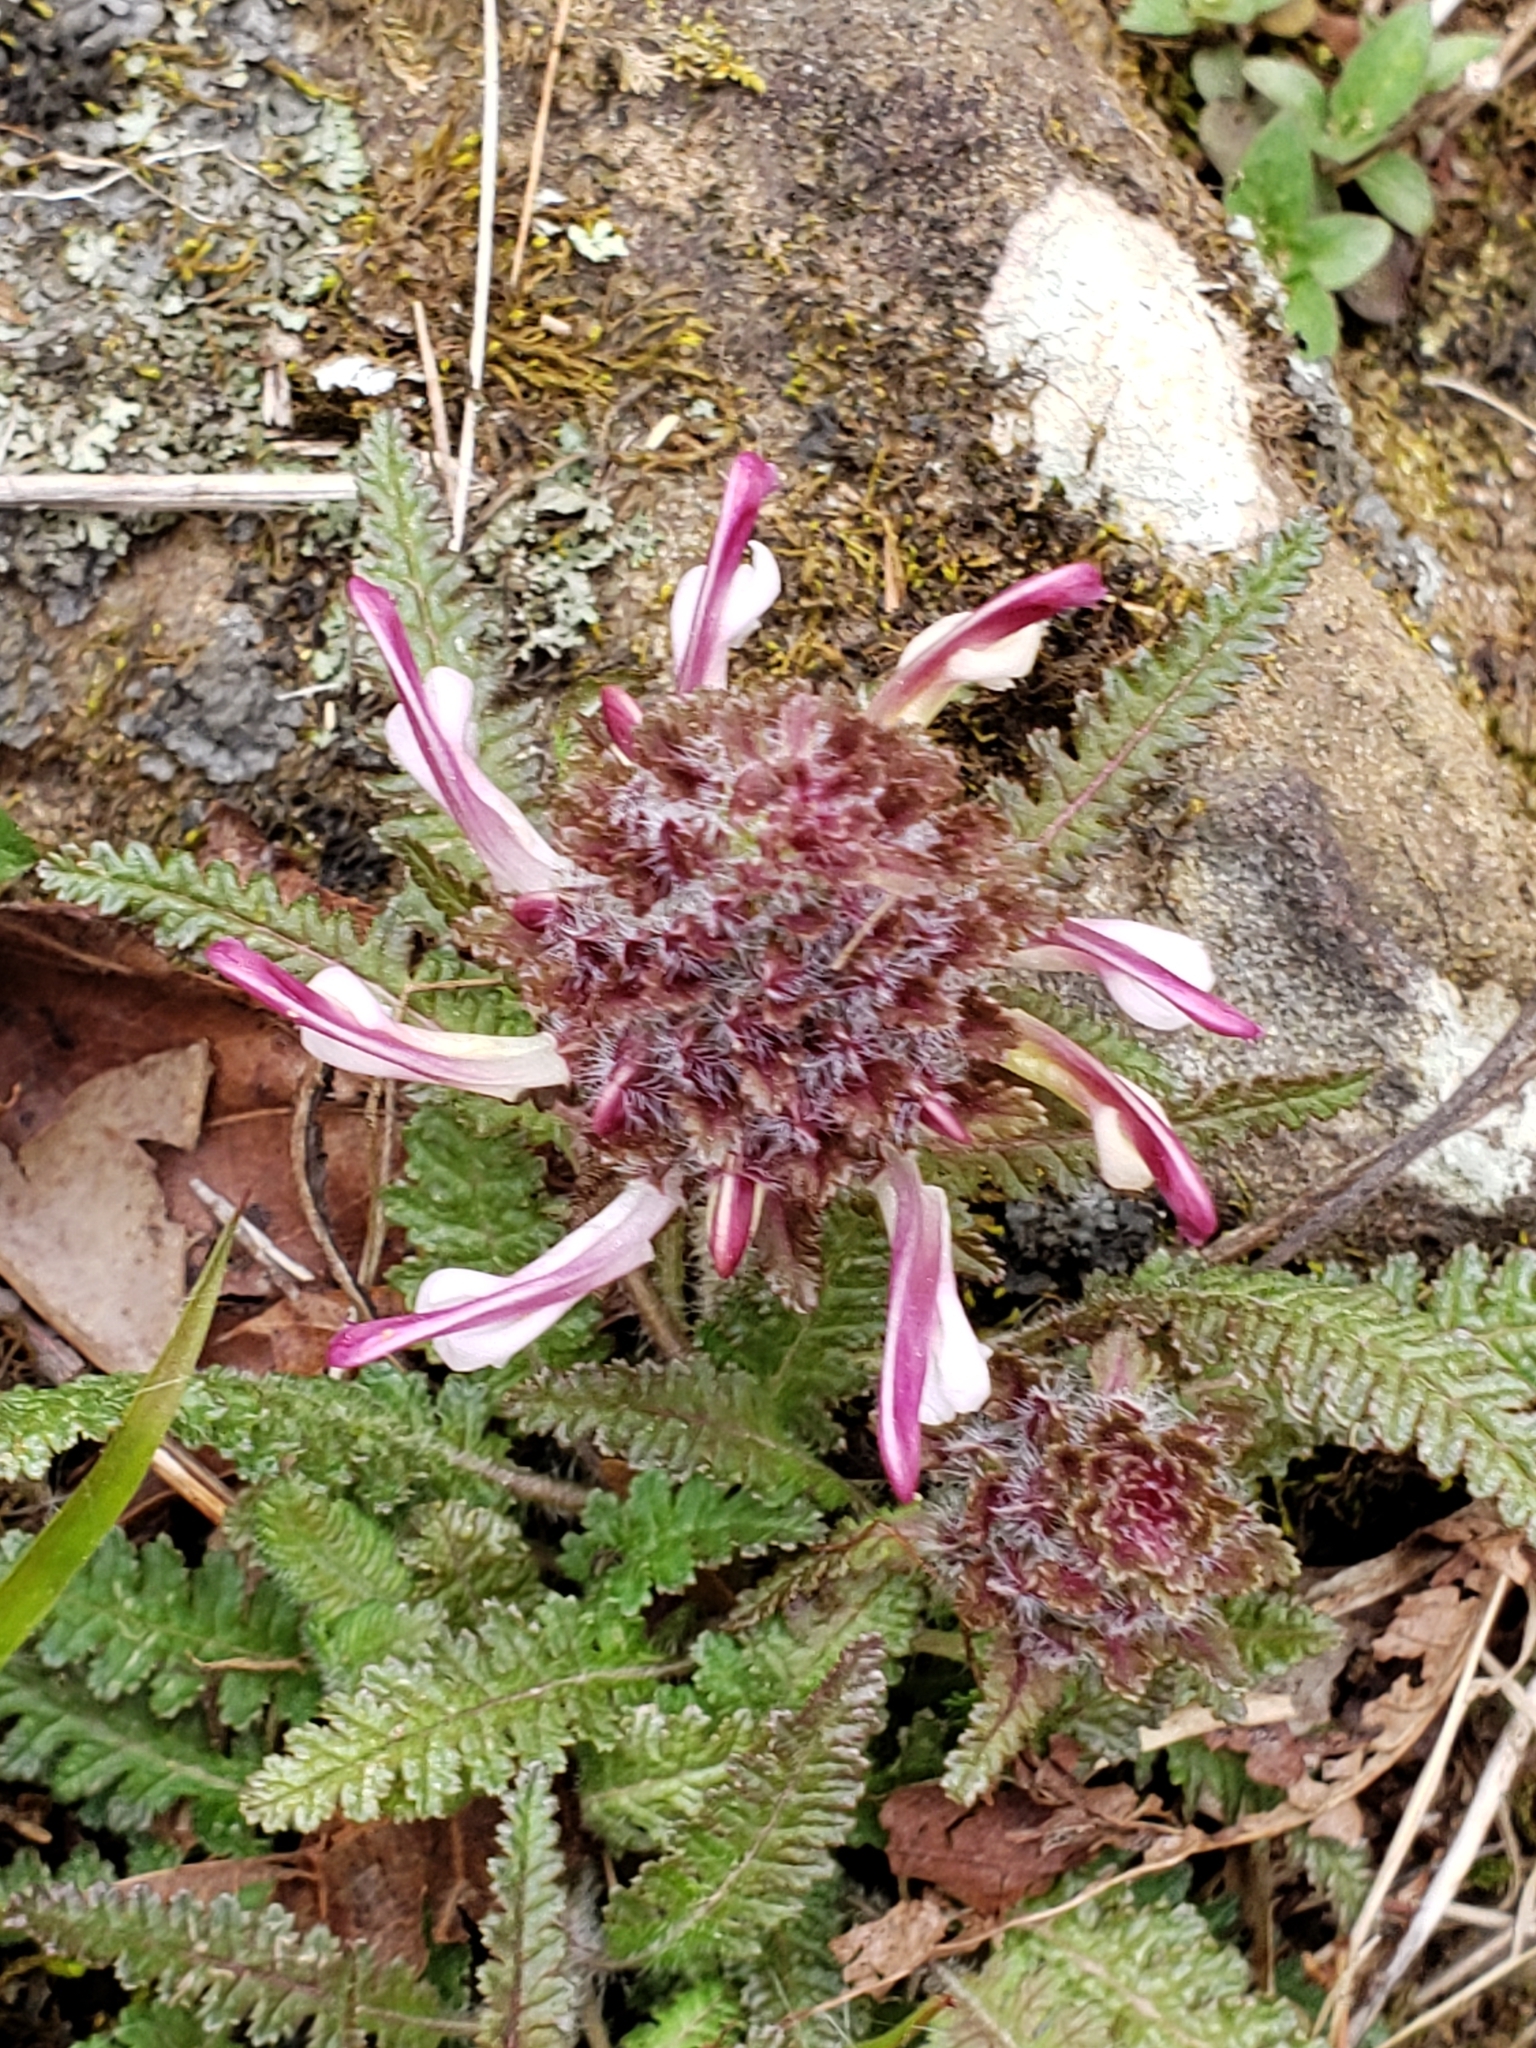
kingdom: Plantae
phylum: Tracheophyta
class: Magnoliopsida
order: Lamiales
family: Orobanchaceae
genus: Pedicularis
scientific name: Pedicularis canadensis
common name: Early lousewort
